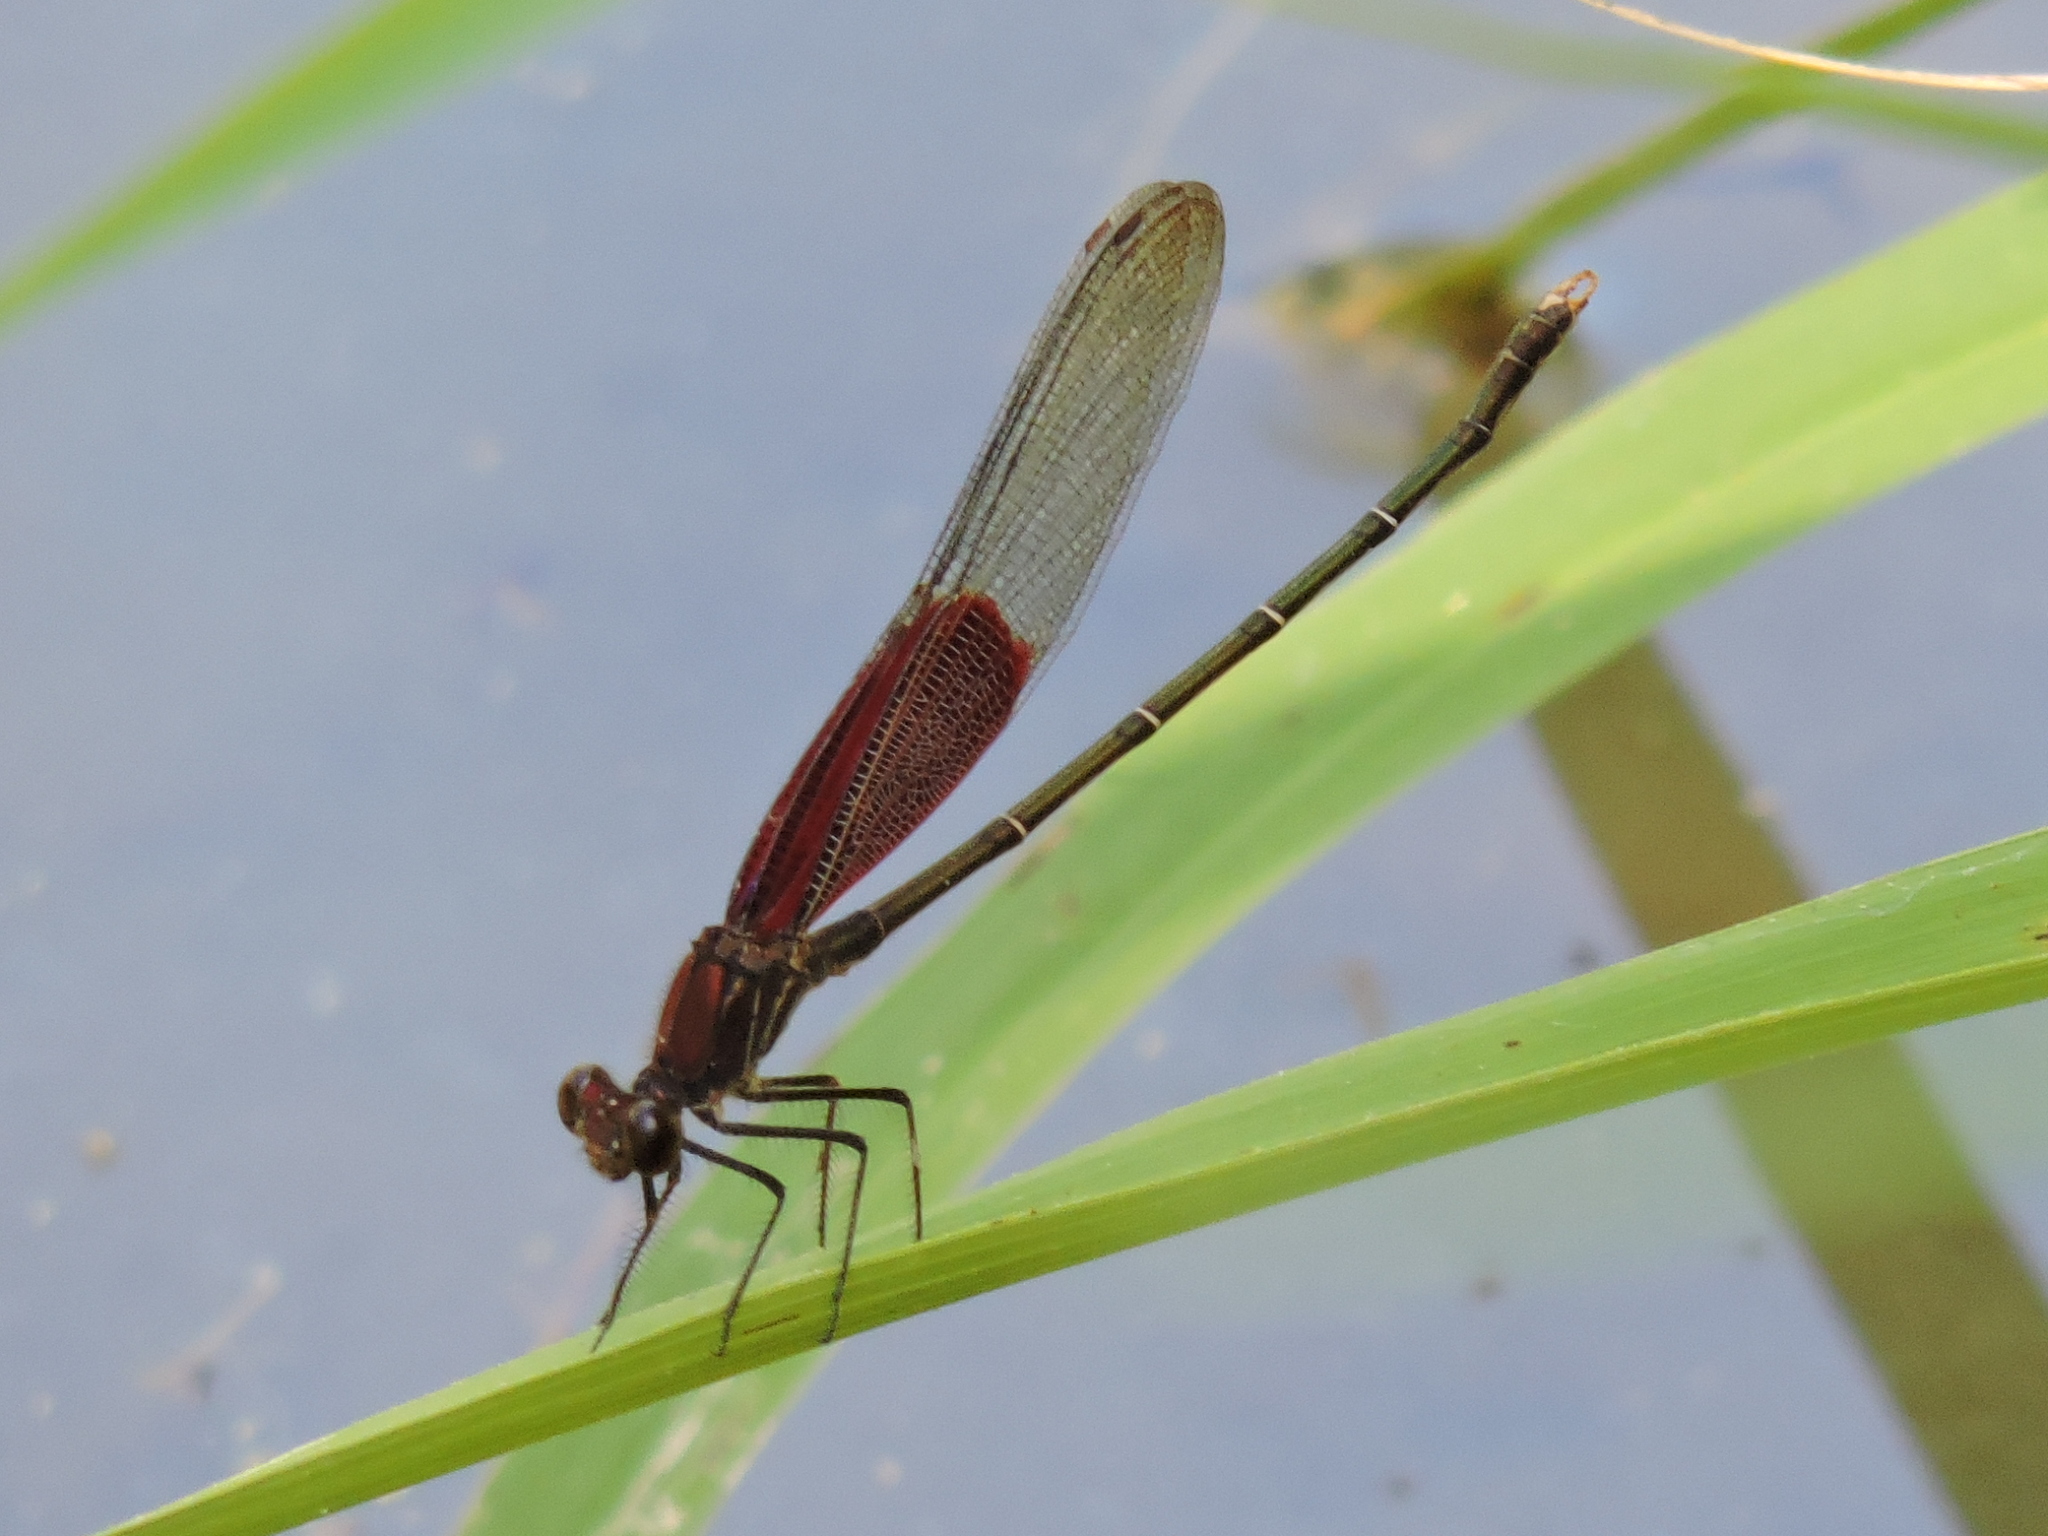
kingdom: Animalia
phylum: Arthropoda
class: Insecta
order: Odonata
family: Calopterygidae
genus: Hetaerina
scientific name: Hetaerina americana
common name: American rubyspot
